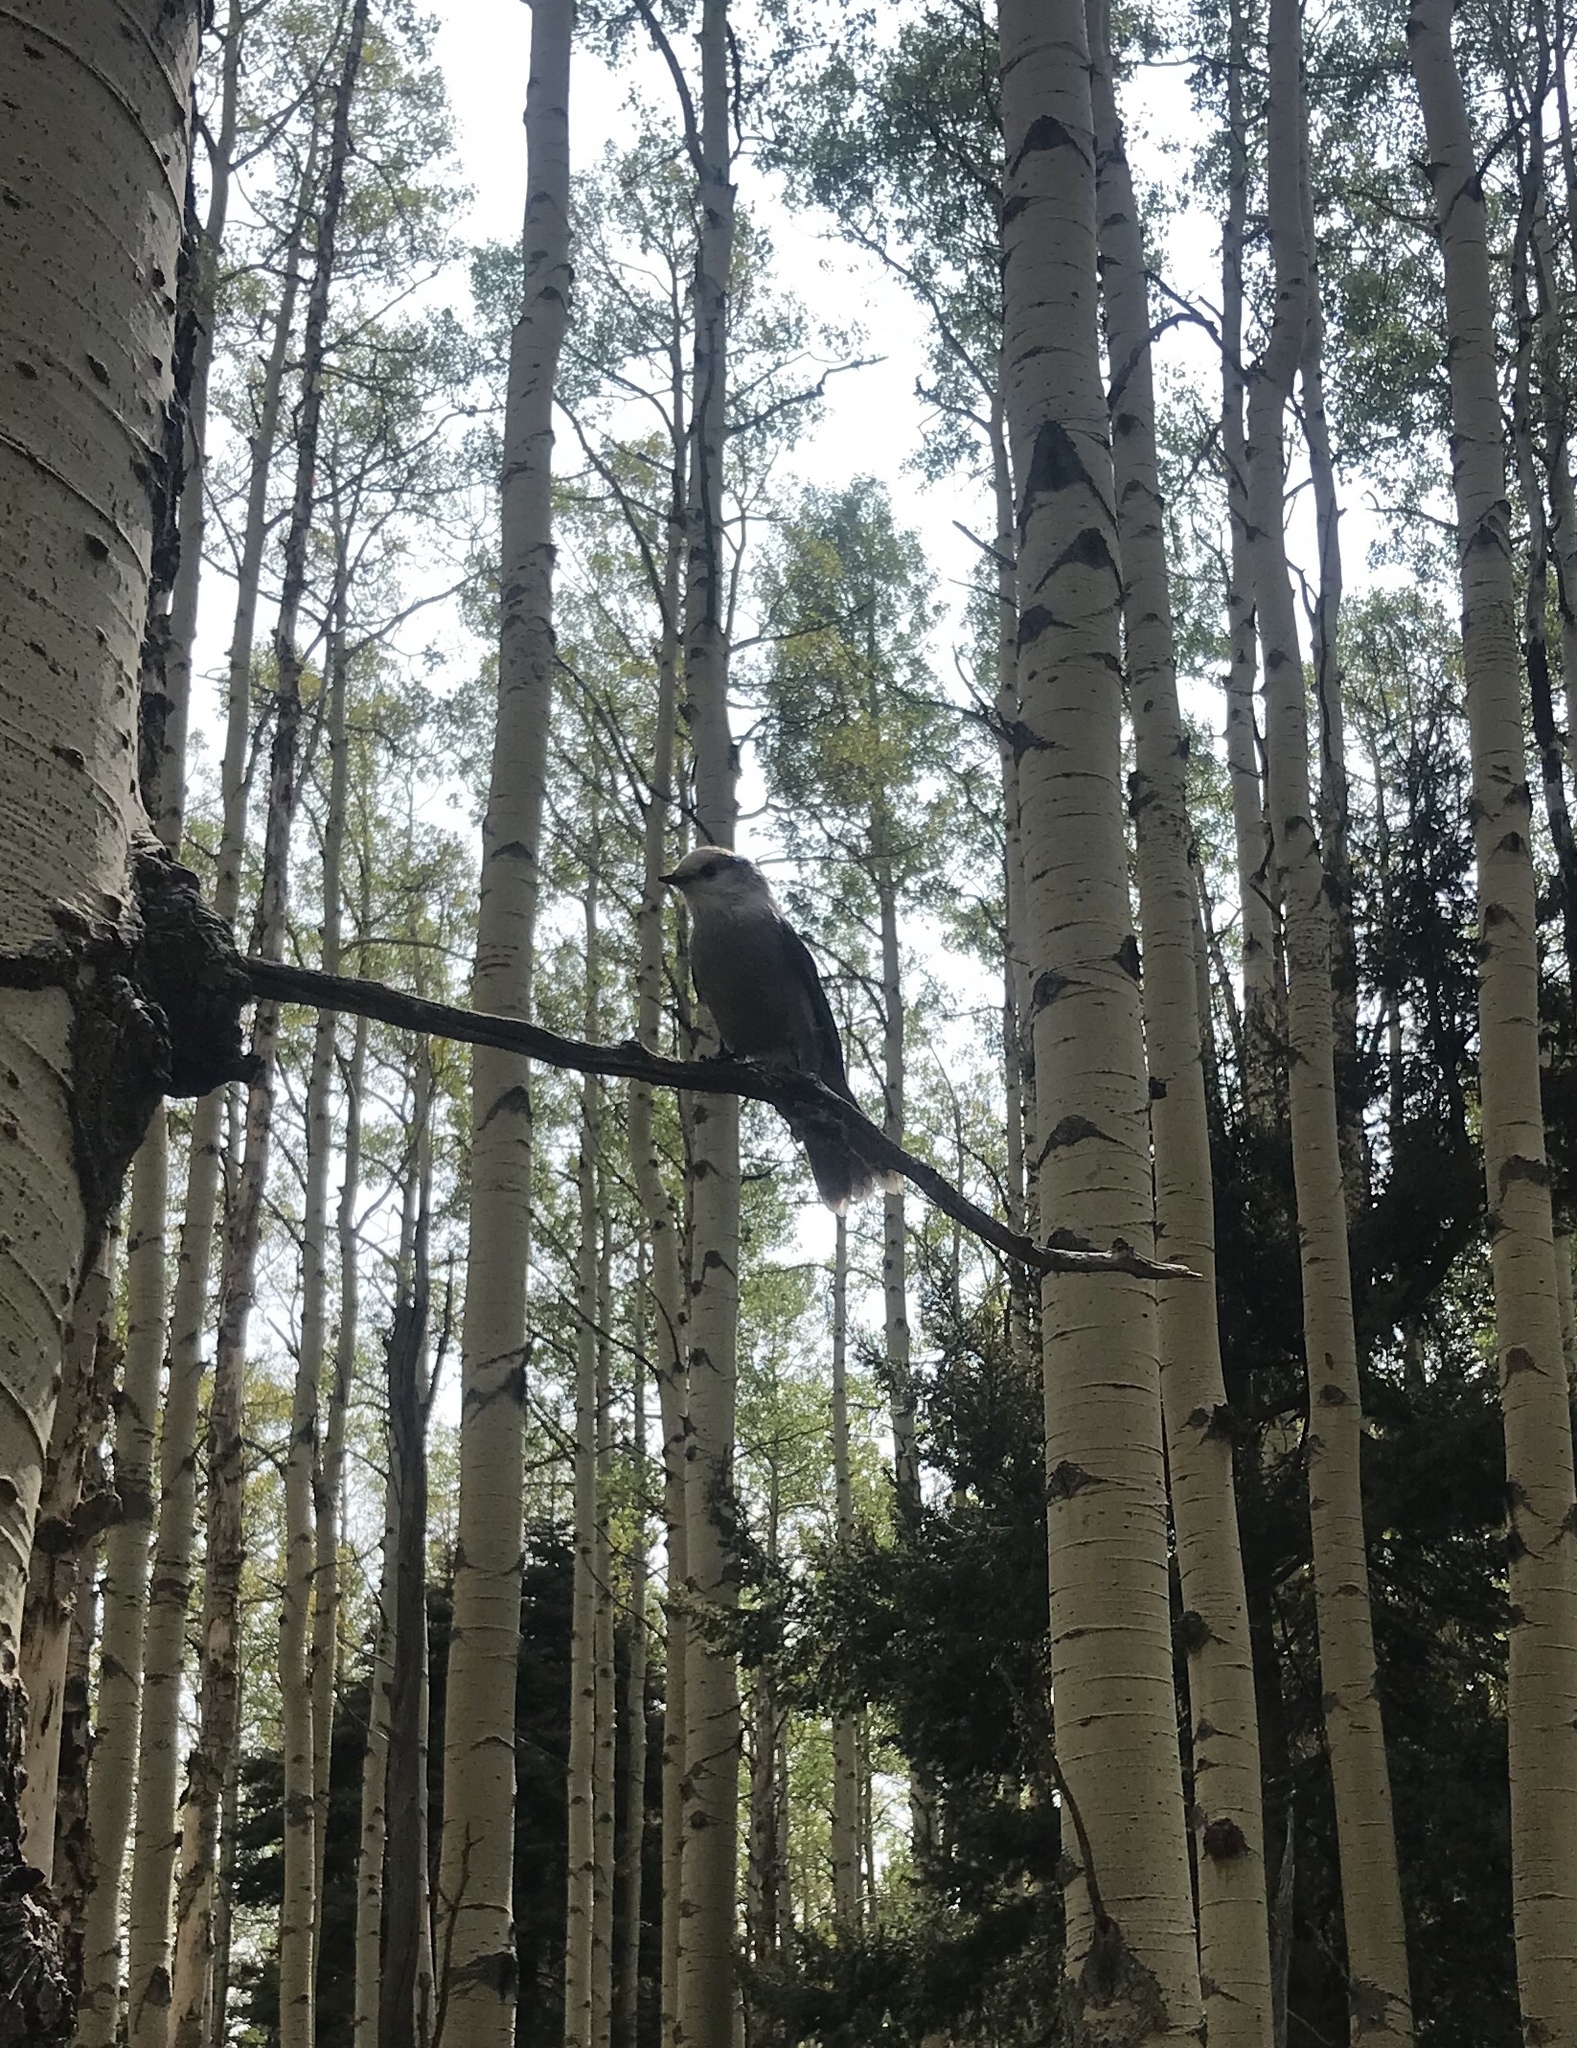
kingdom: Animalia
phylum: Chordata
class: Aves
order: Passeriformes
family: Corvidae
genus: Perisoreus
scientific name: Perisoreus canadensis
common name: Gray jay
